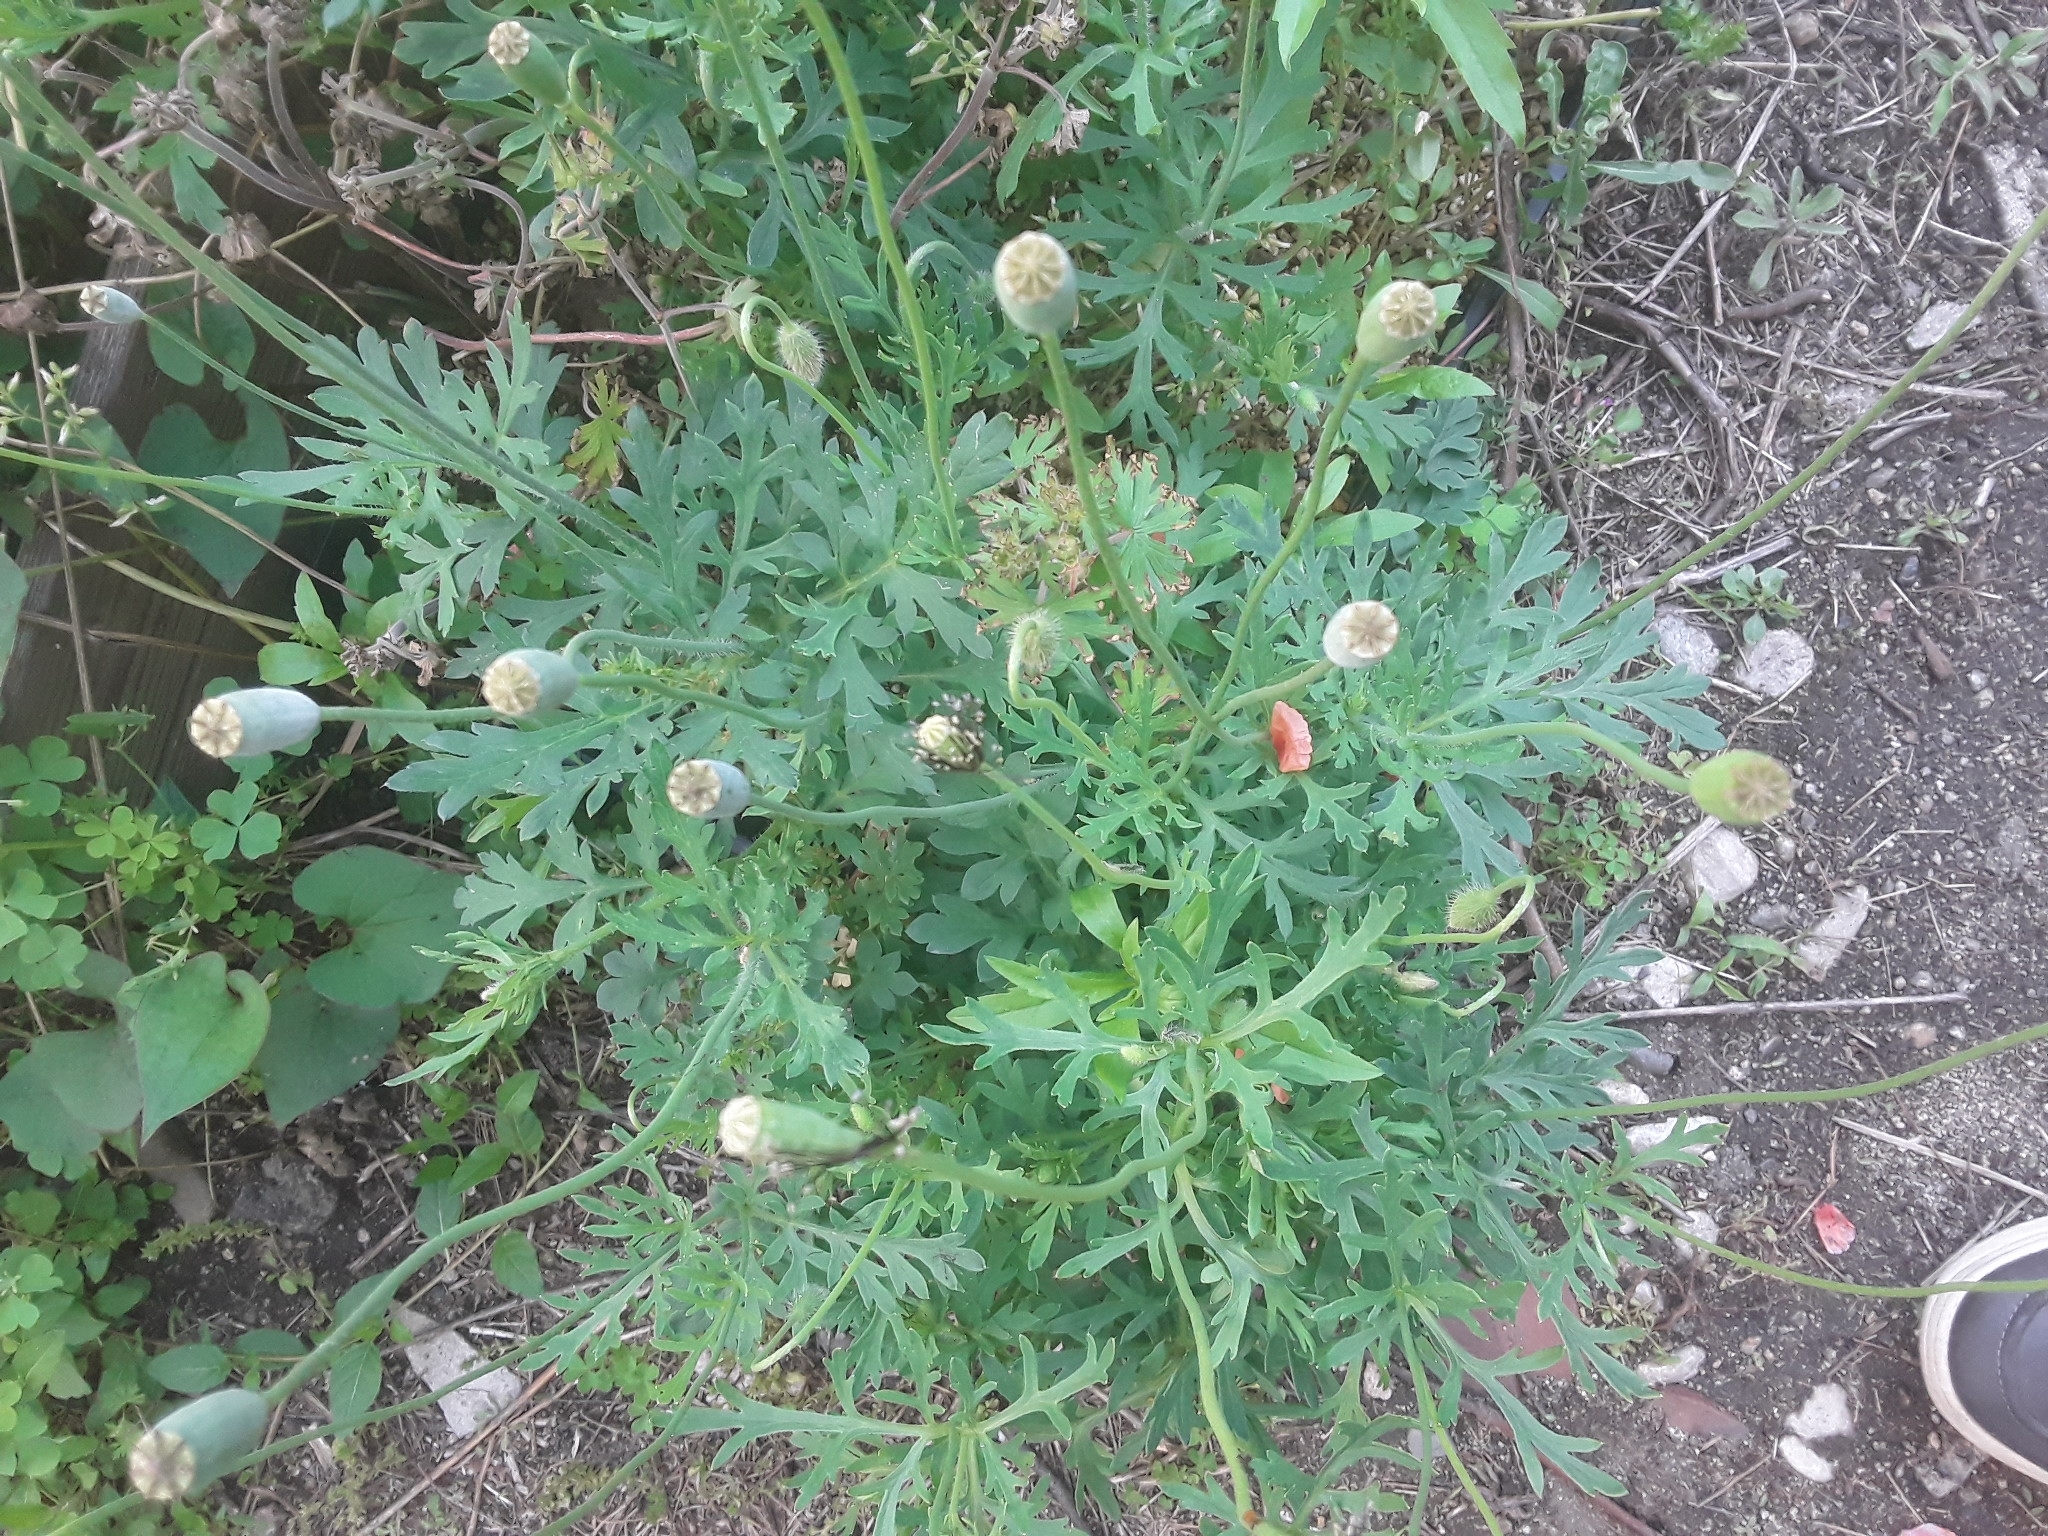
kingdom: Plantae
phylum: Tracheophyta
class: Magnoliopsida
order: Ranunculales
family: Papaveraceae
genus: Papaver
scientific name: Papaver dubium
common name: Long-headed poppy
